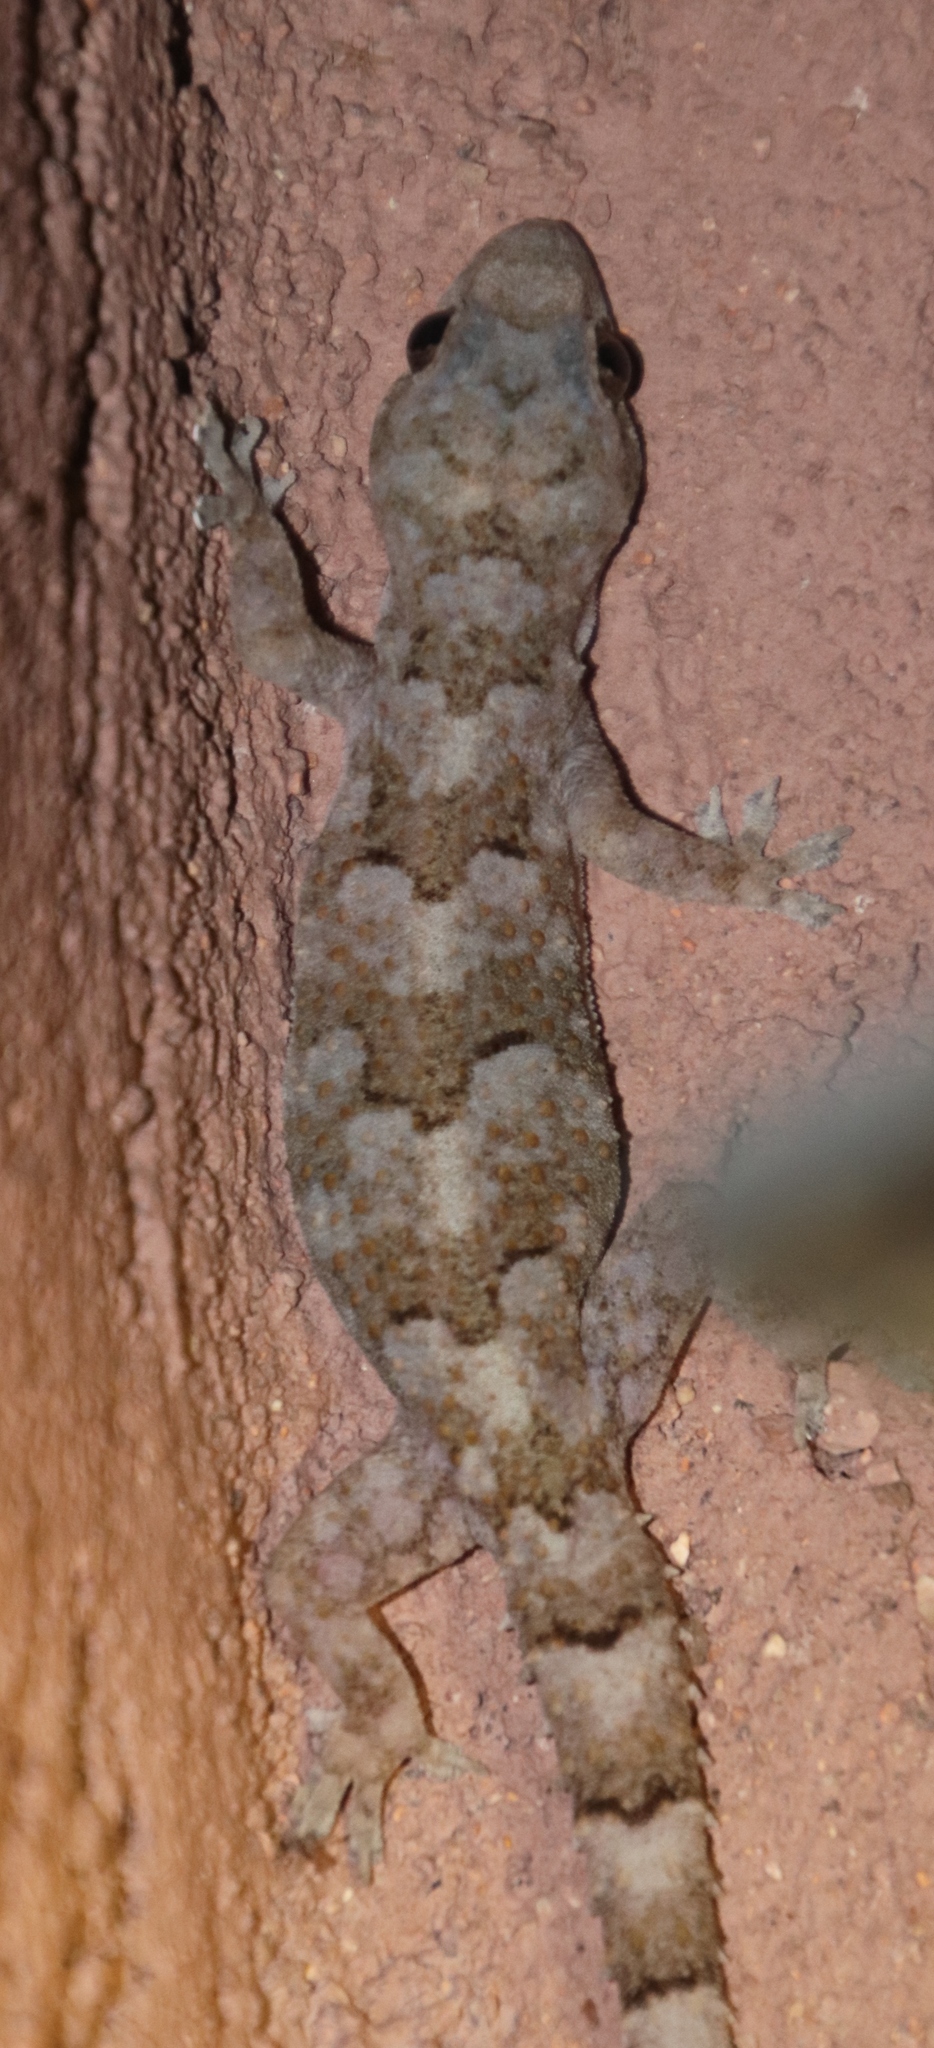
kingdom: Animalia
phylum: Chordata
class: Squamata
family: Gekkonidae
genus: Chondrodactylus
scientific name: Chondrodactylus turneri
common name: Turner’s gecko
